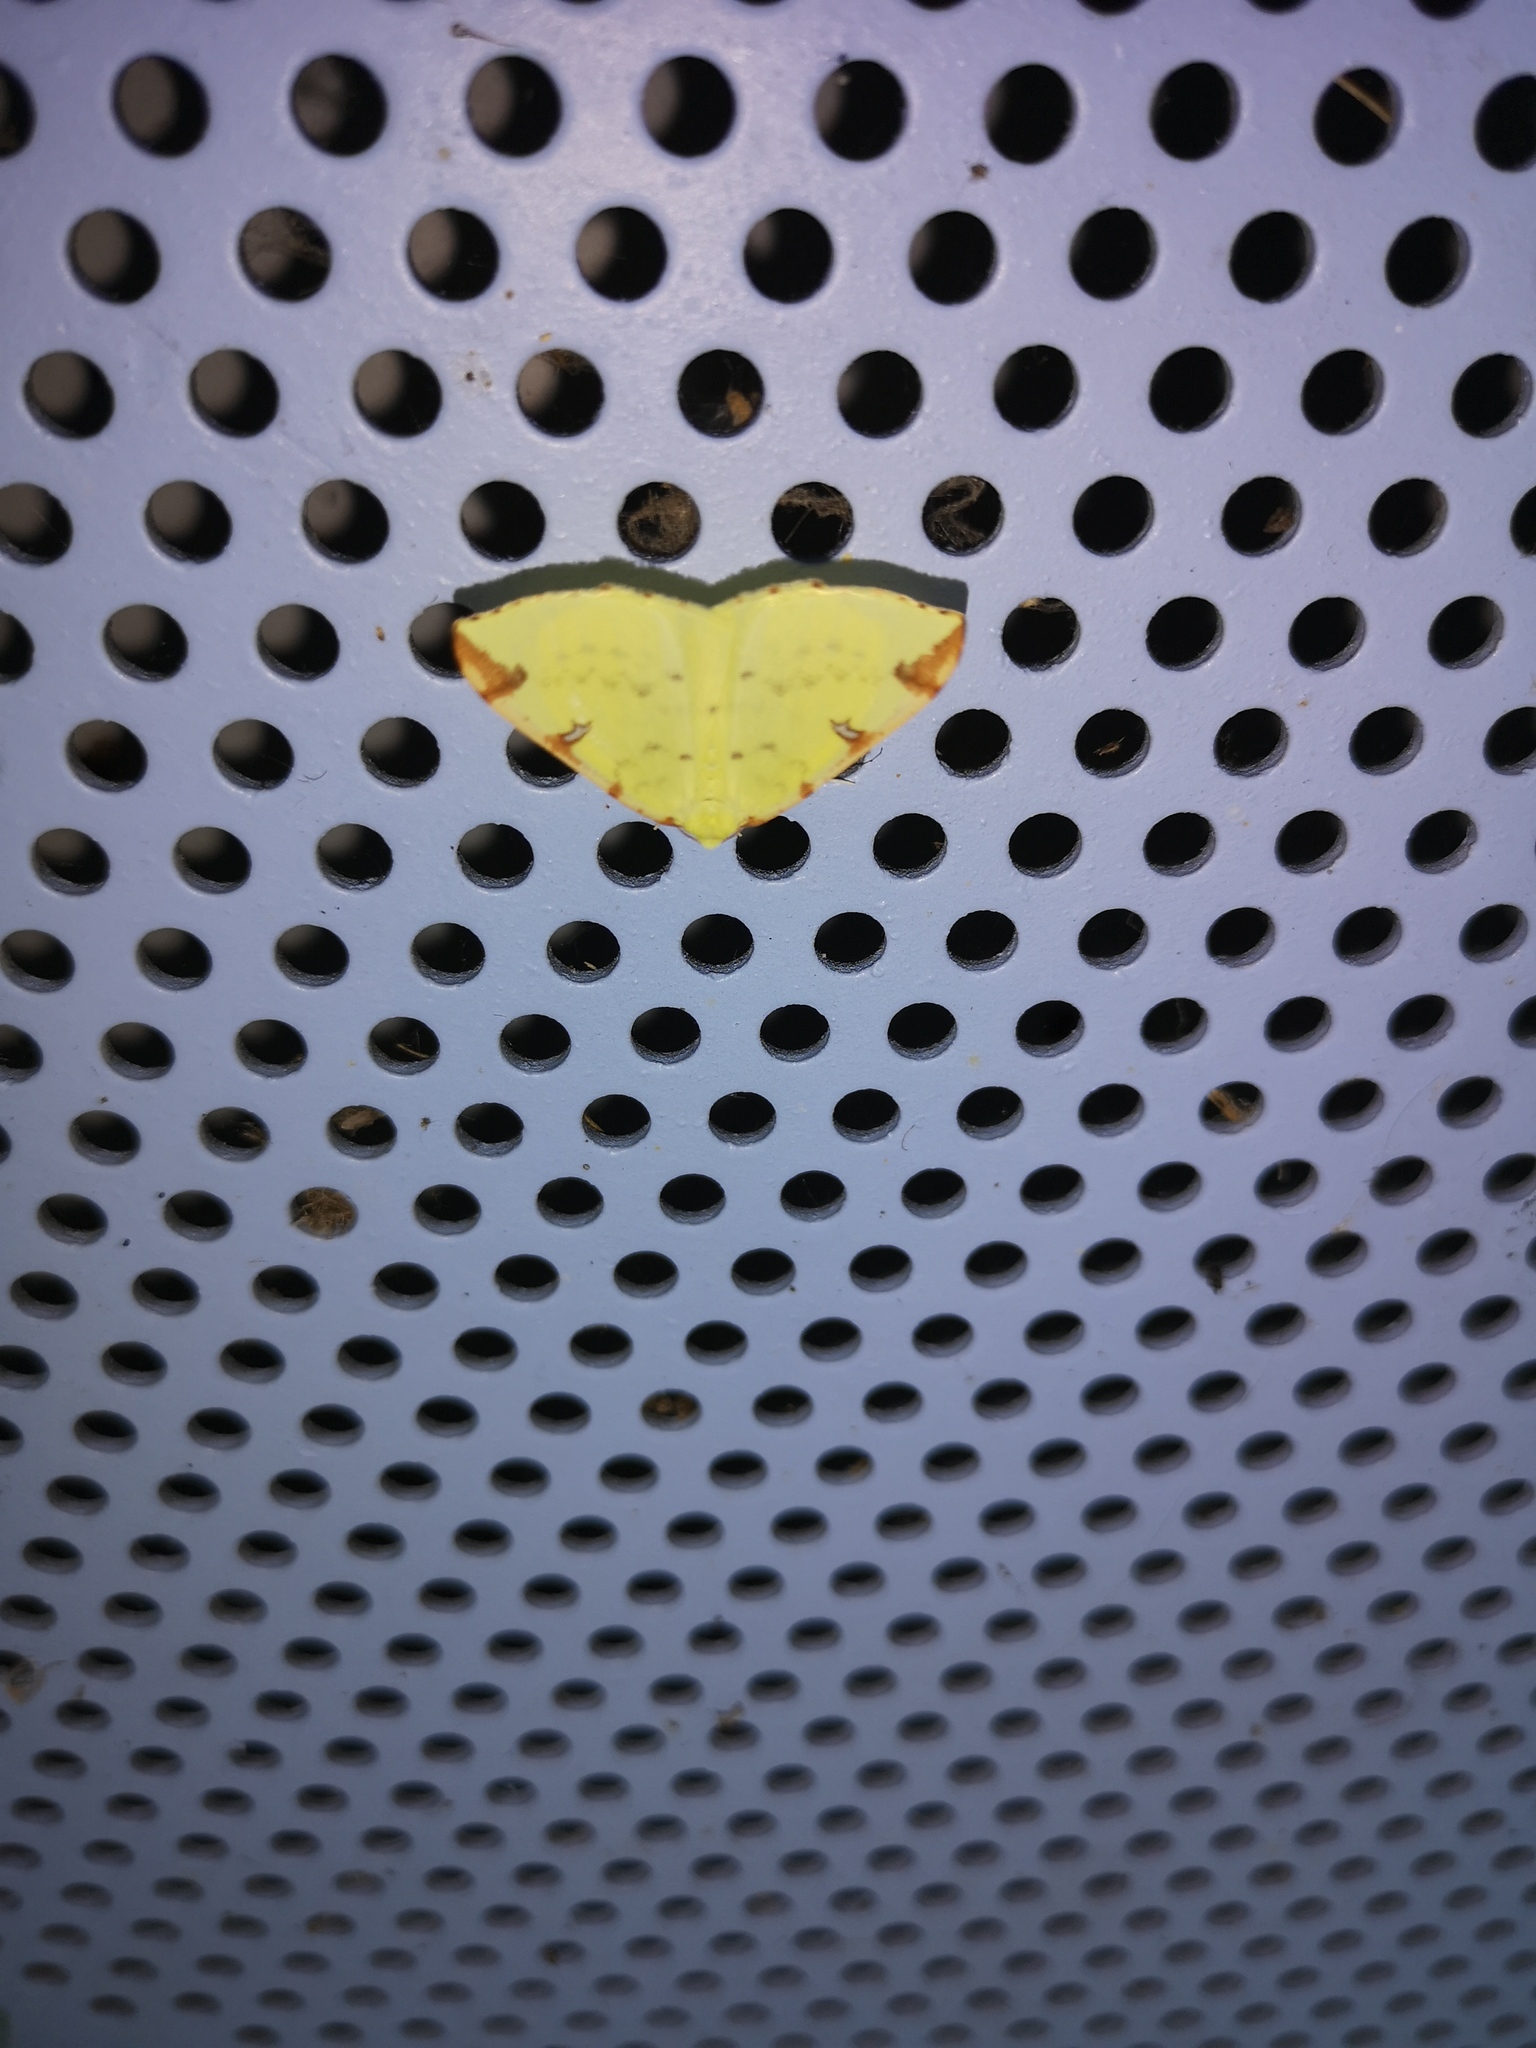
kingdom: Animalia
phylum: Arthropoda
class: Insecta
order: Lepidoptera
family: Geometridae
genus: Opisthograptis
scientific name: Opisthograptis luteolata
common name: Brimstone moth
